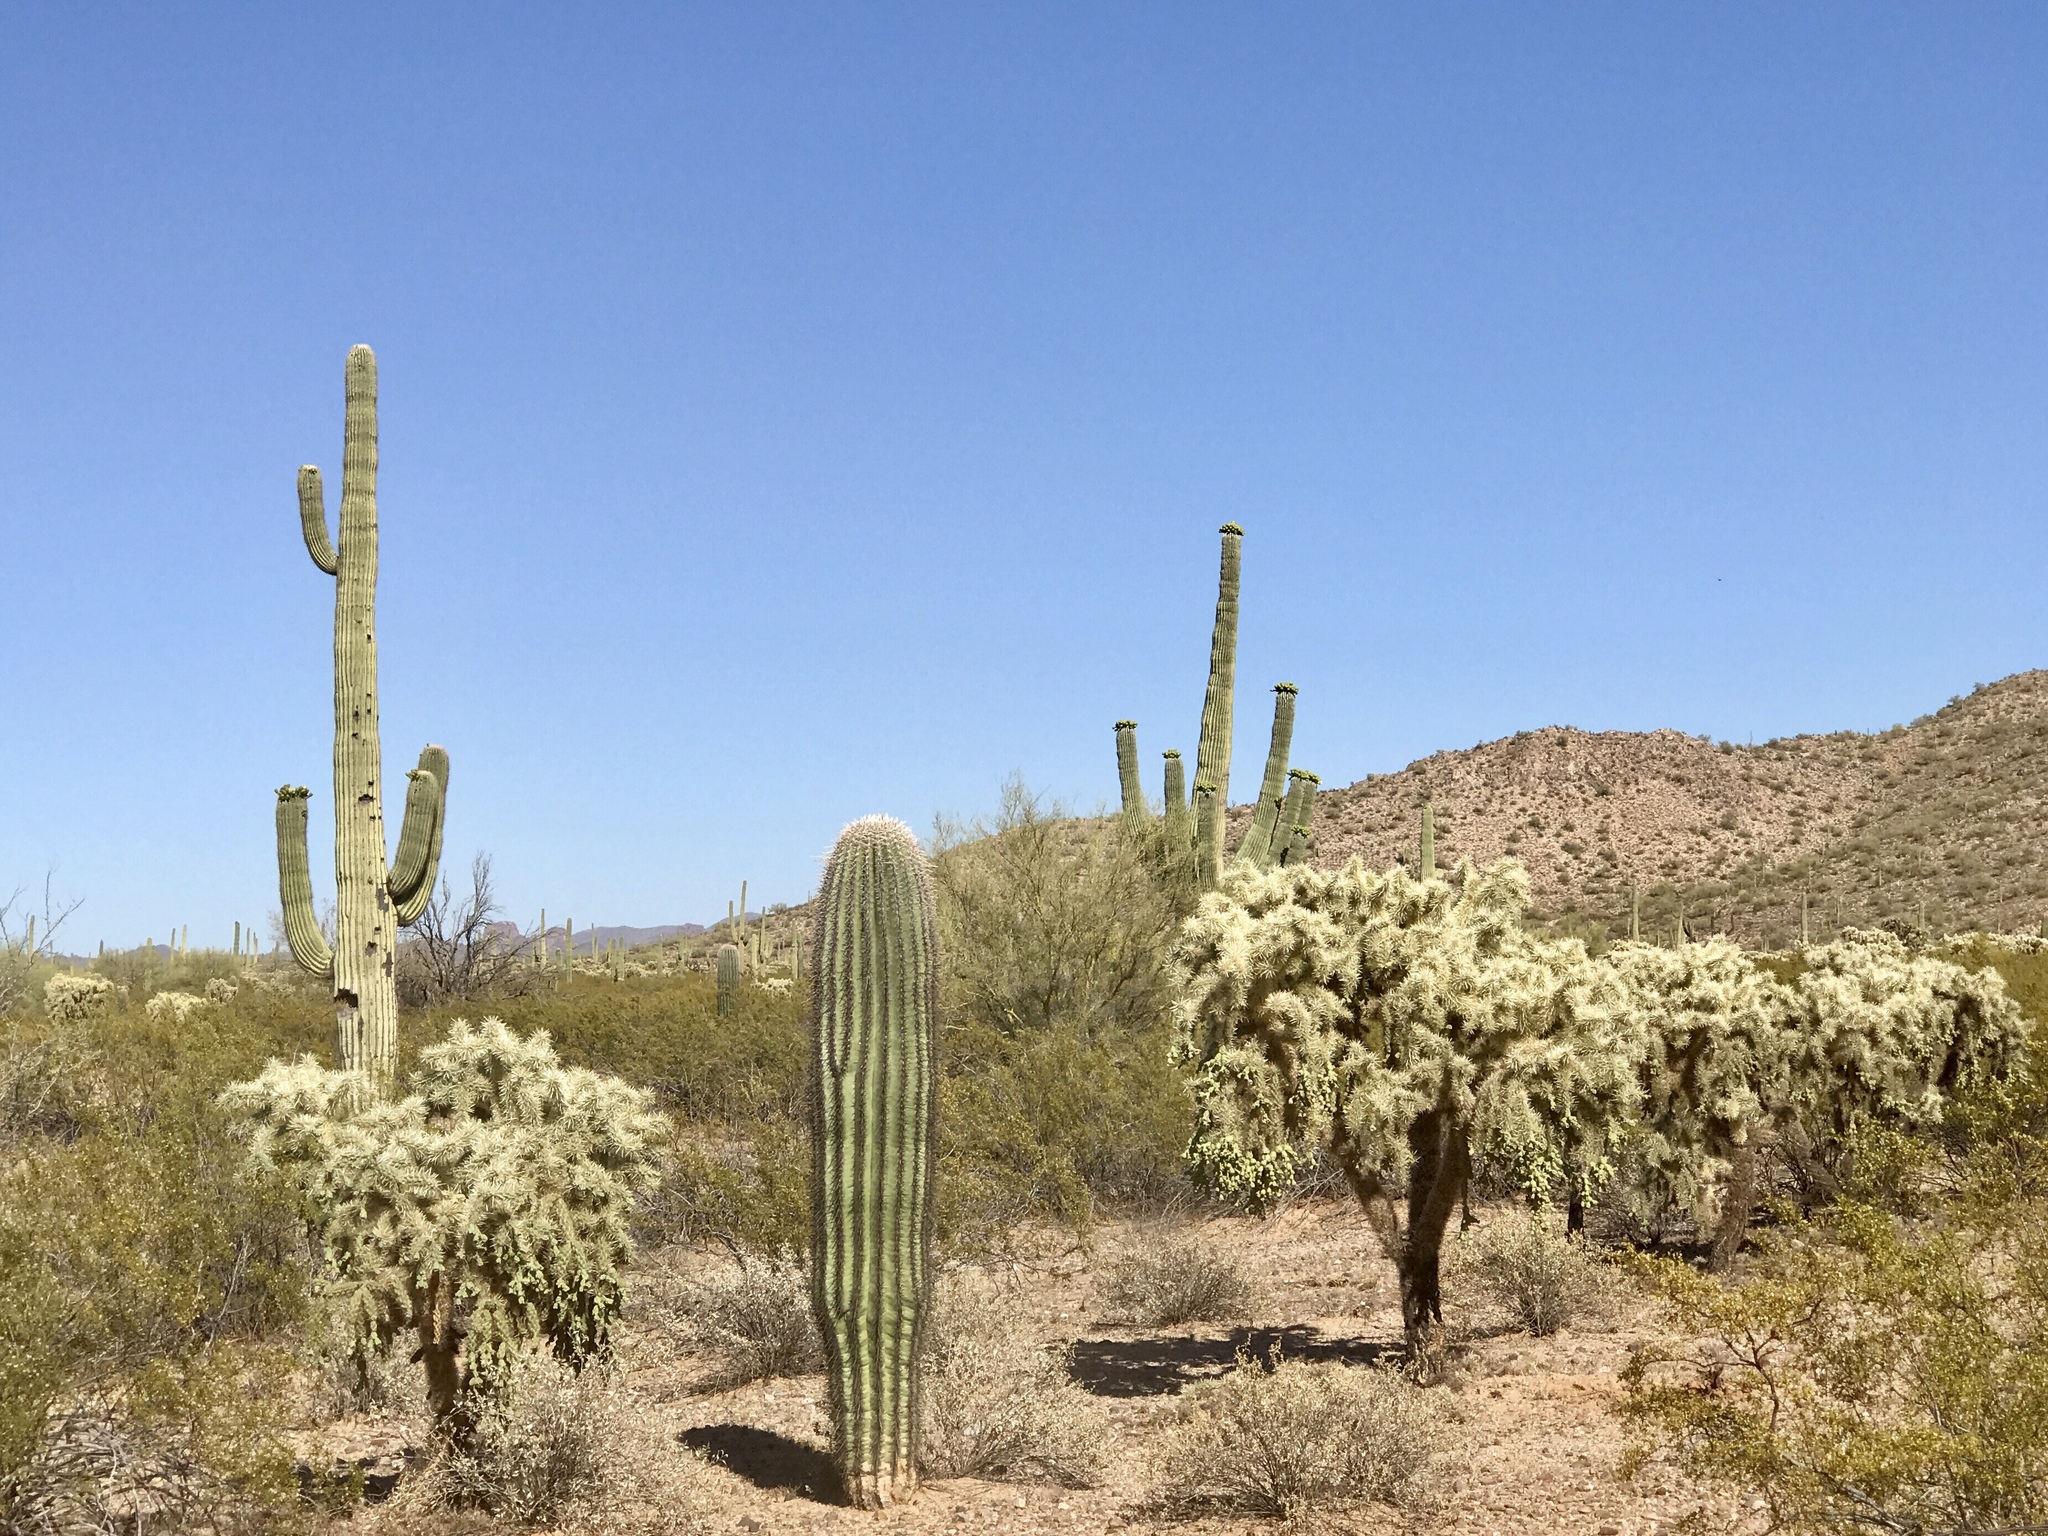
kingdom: Plantae
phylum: Tracheophyta
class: Magnoliopsida
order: Caryophyllales
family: Cactaceae
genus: Cylindropuntia
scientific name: Cylindropuntia fulgida
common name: Jumping cholla
